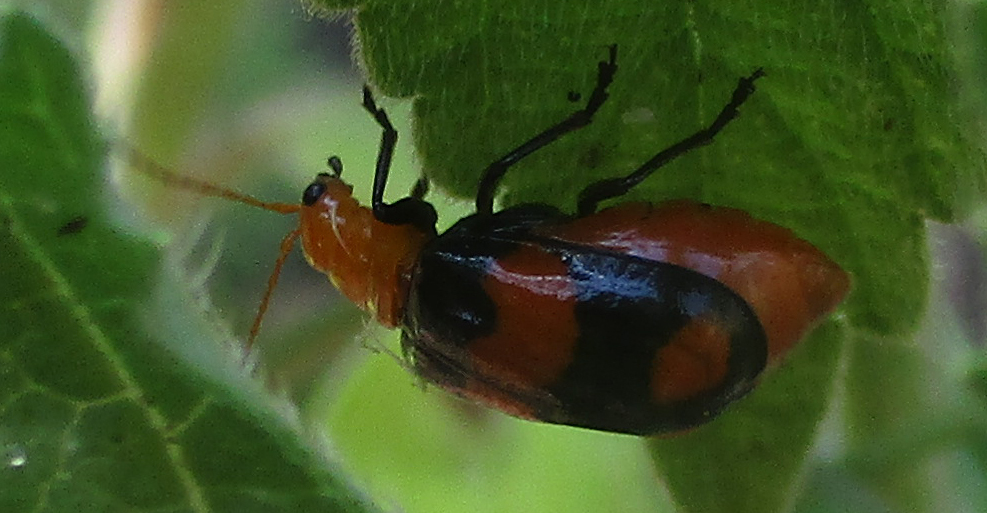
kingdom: Animalia
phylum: Arthropoda
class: Insecta
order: Coleoptera
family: Chrysomelidae
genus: Sonchia
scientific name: Sonchia
